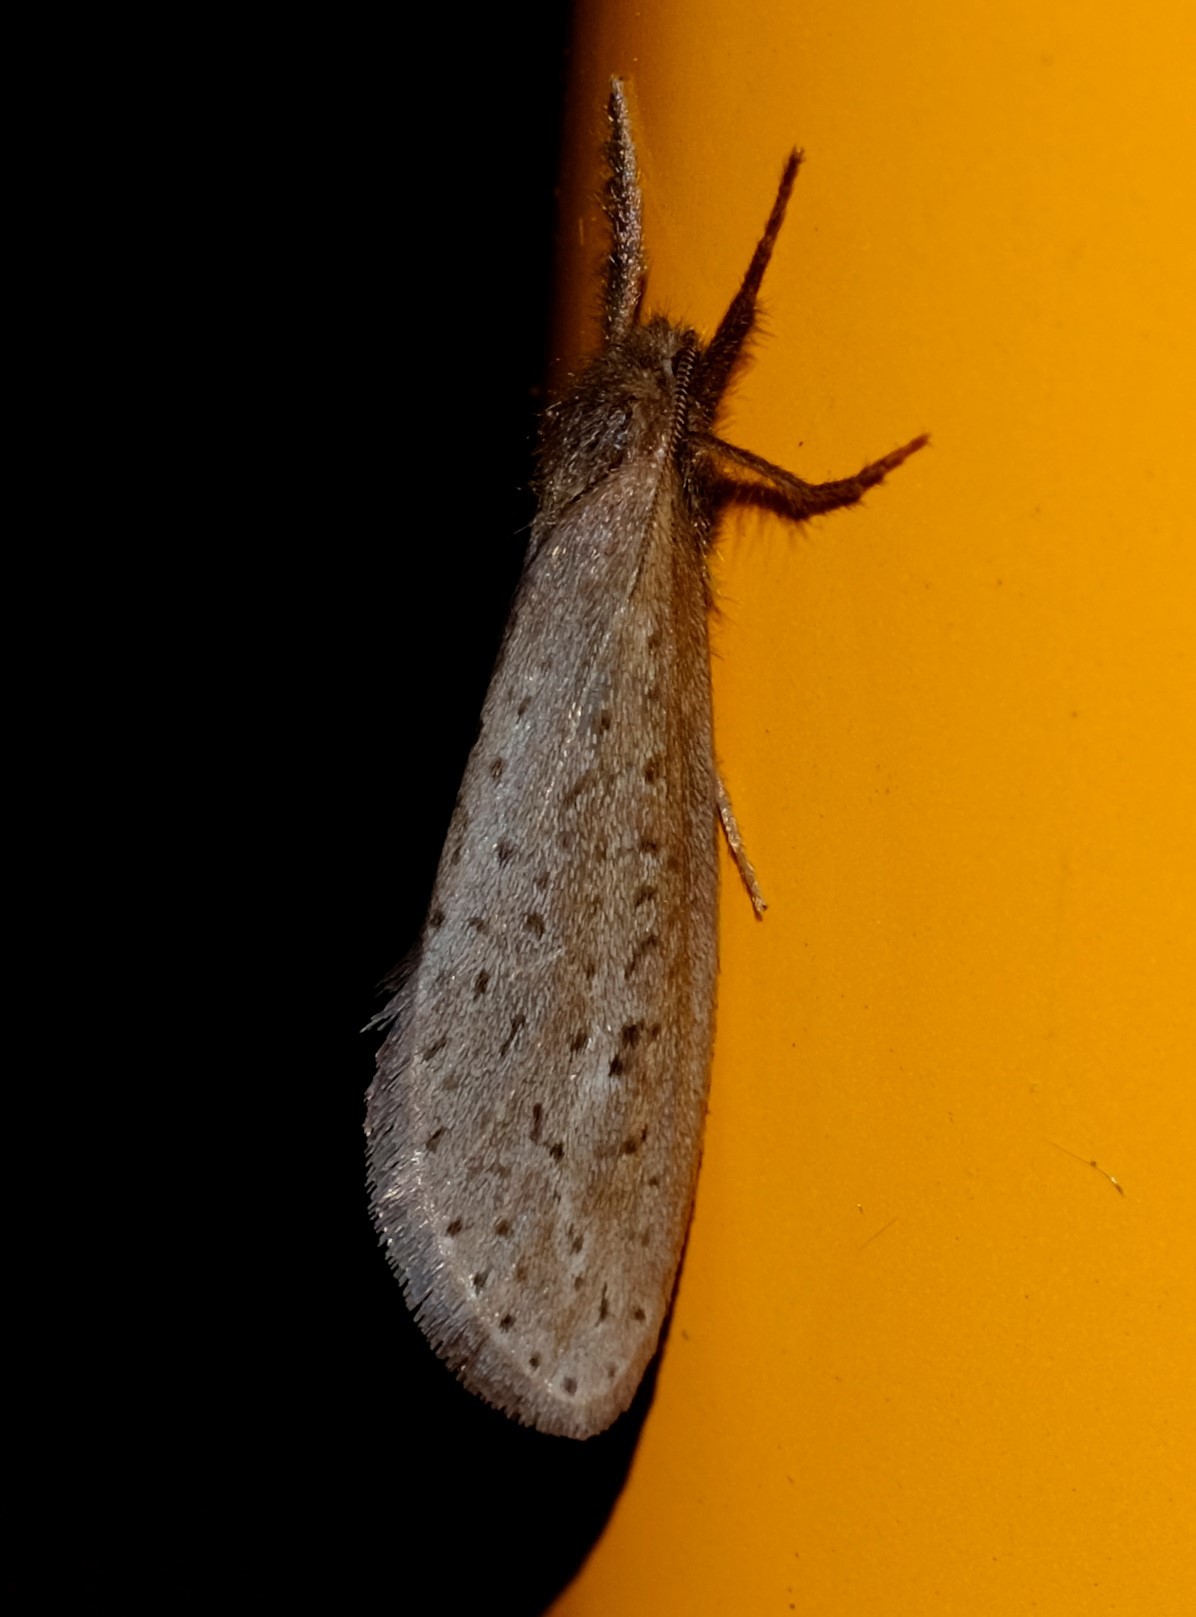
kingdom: Animalia
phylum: Arthropoda
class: Insecta
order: Lepidoptera
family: Hepialidae
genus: Fraus
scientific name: Fraus pteromela
